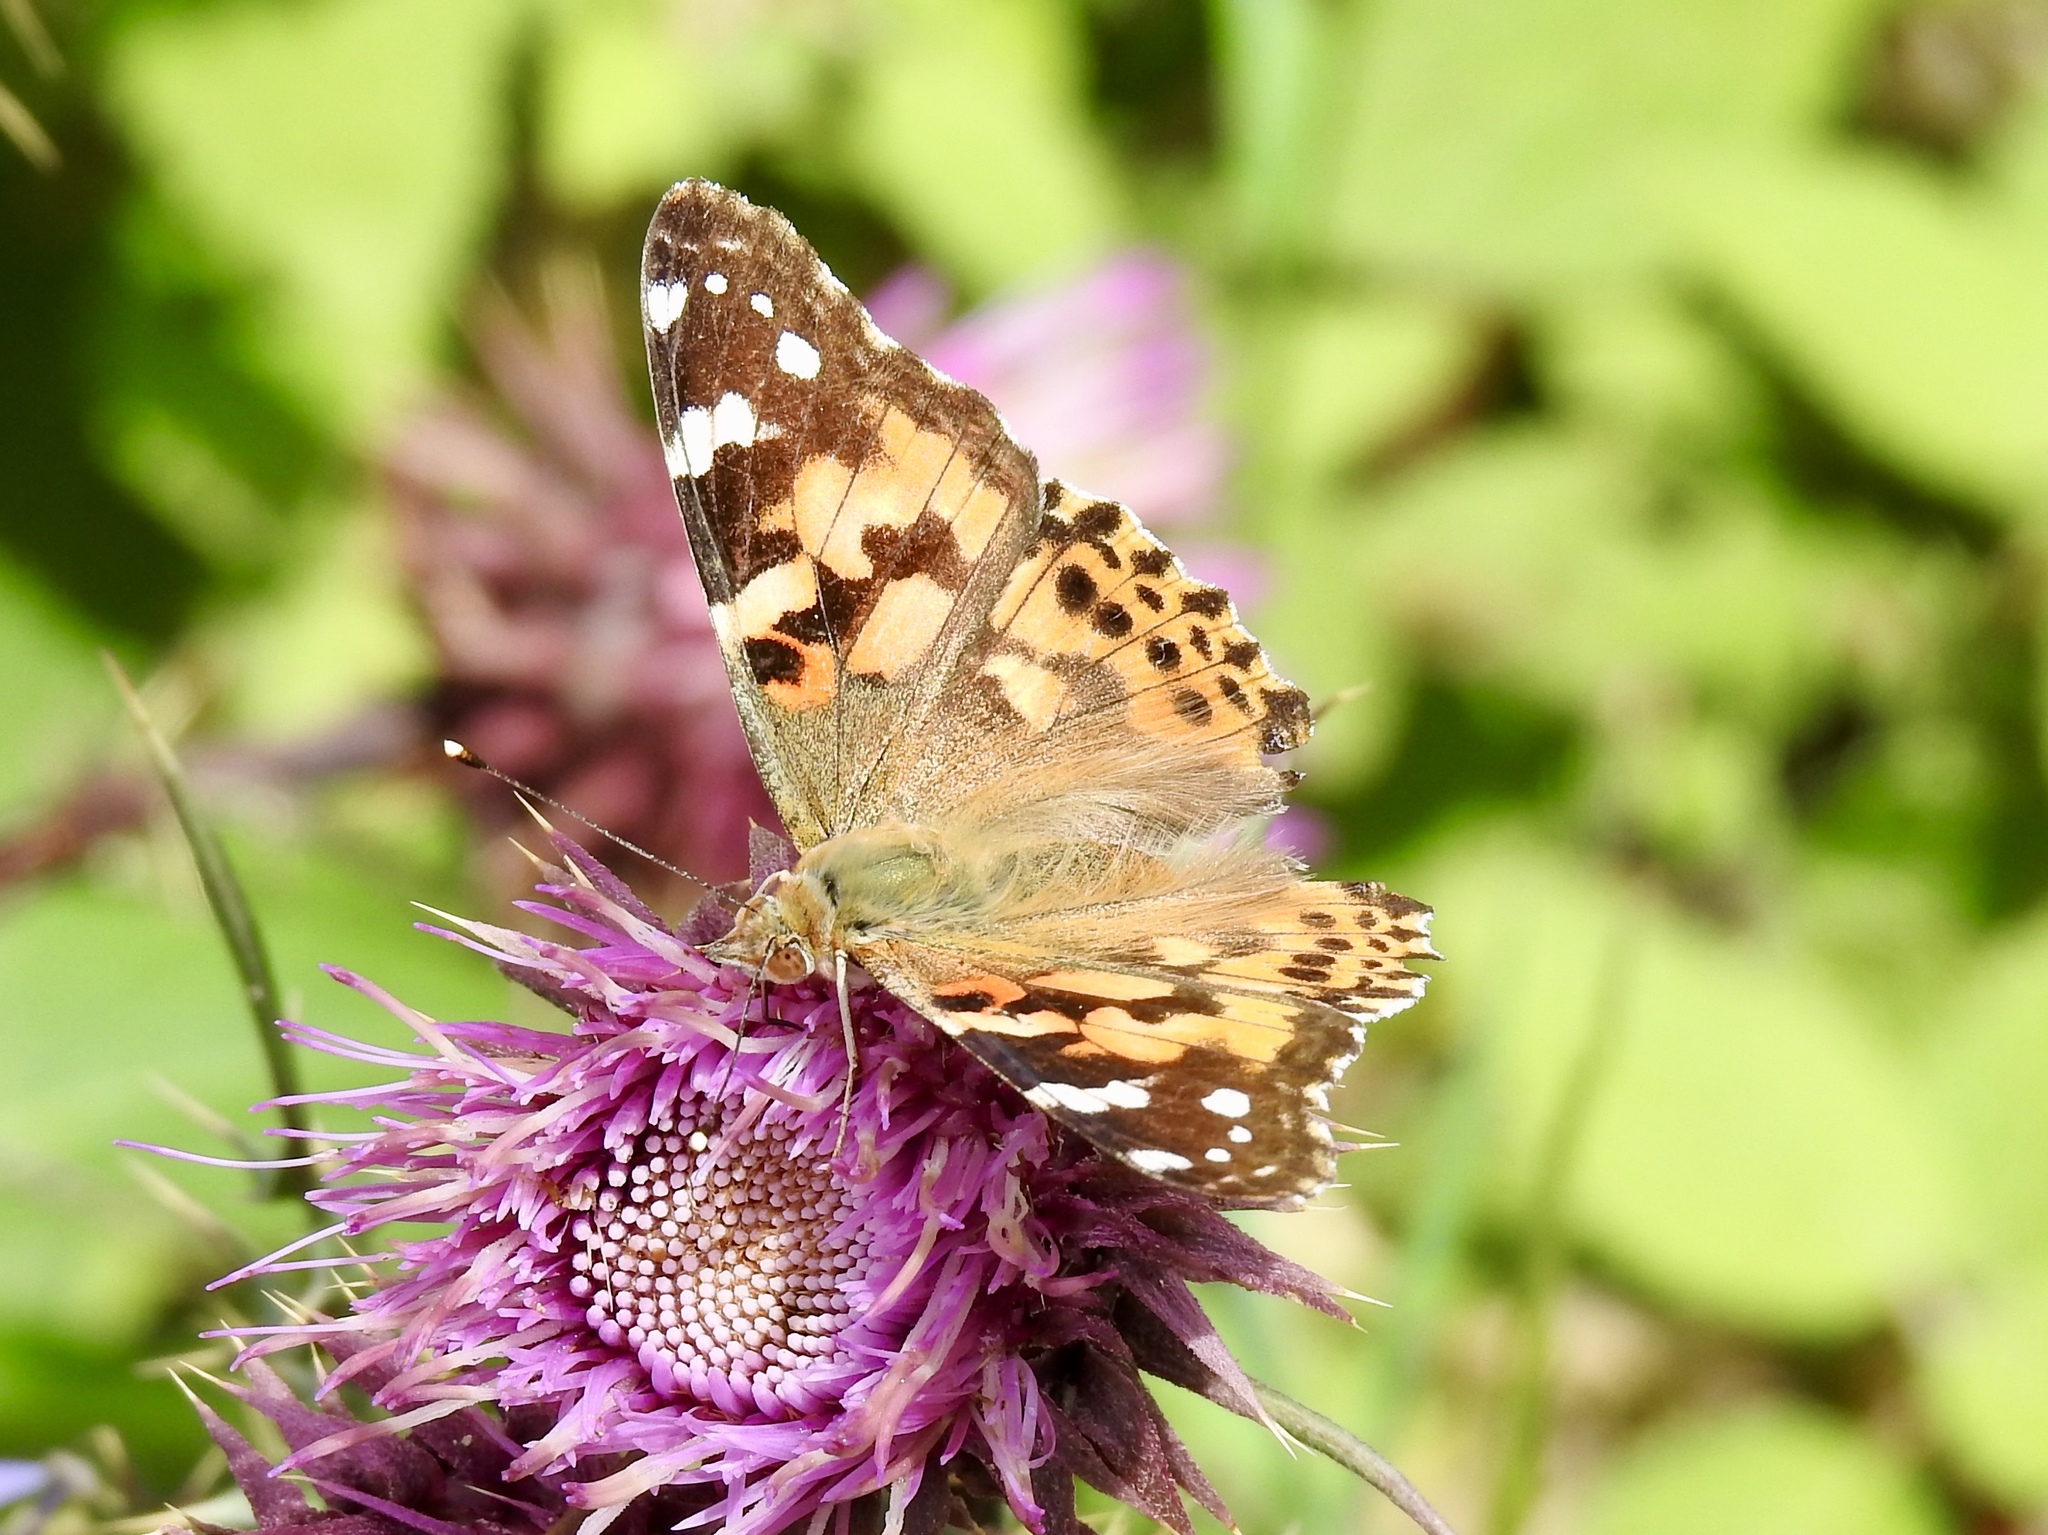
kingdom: Animalia
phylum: Arthropoda
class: Insecta
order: Lepidoptera
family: Nymphalidae
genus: Vanessa
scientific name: Vanessa cardui
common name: Painted lady
